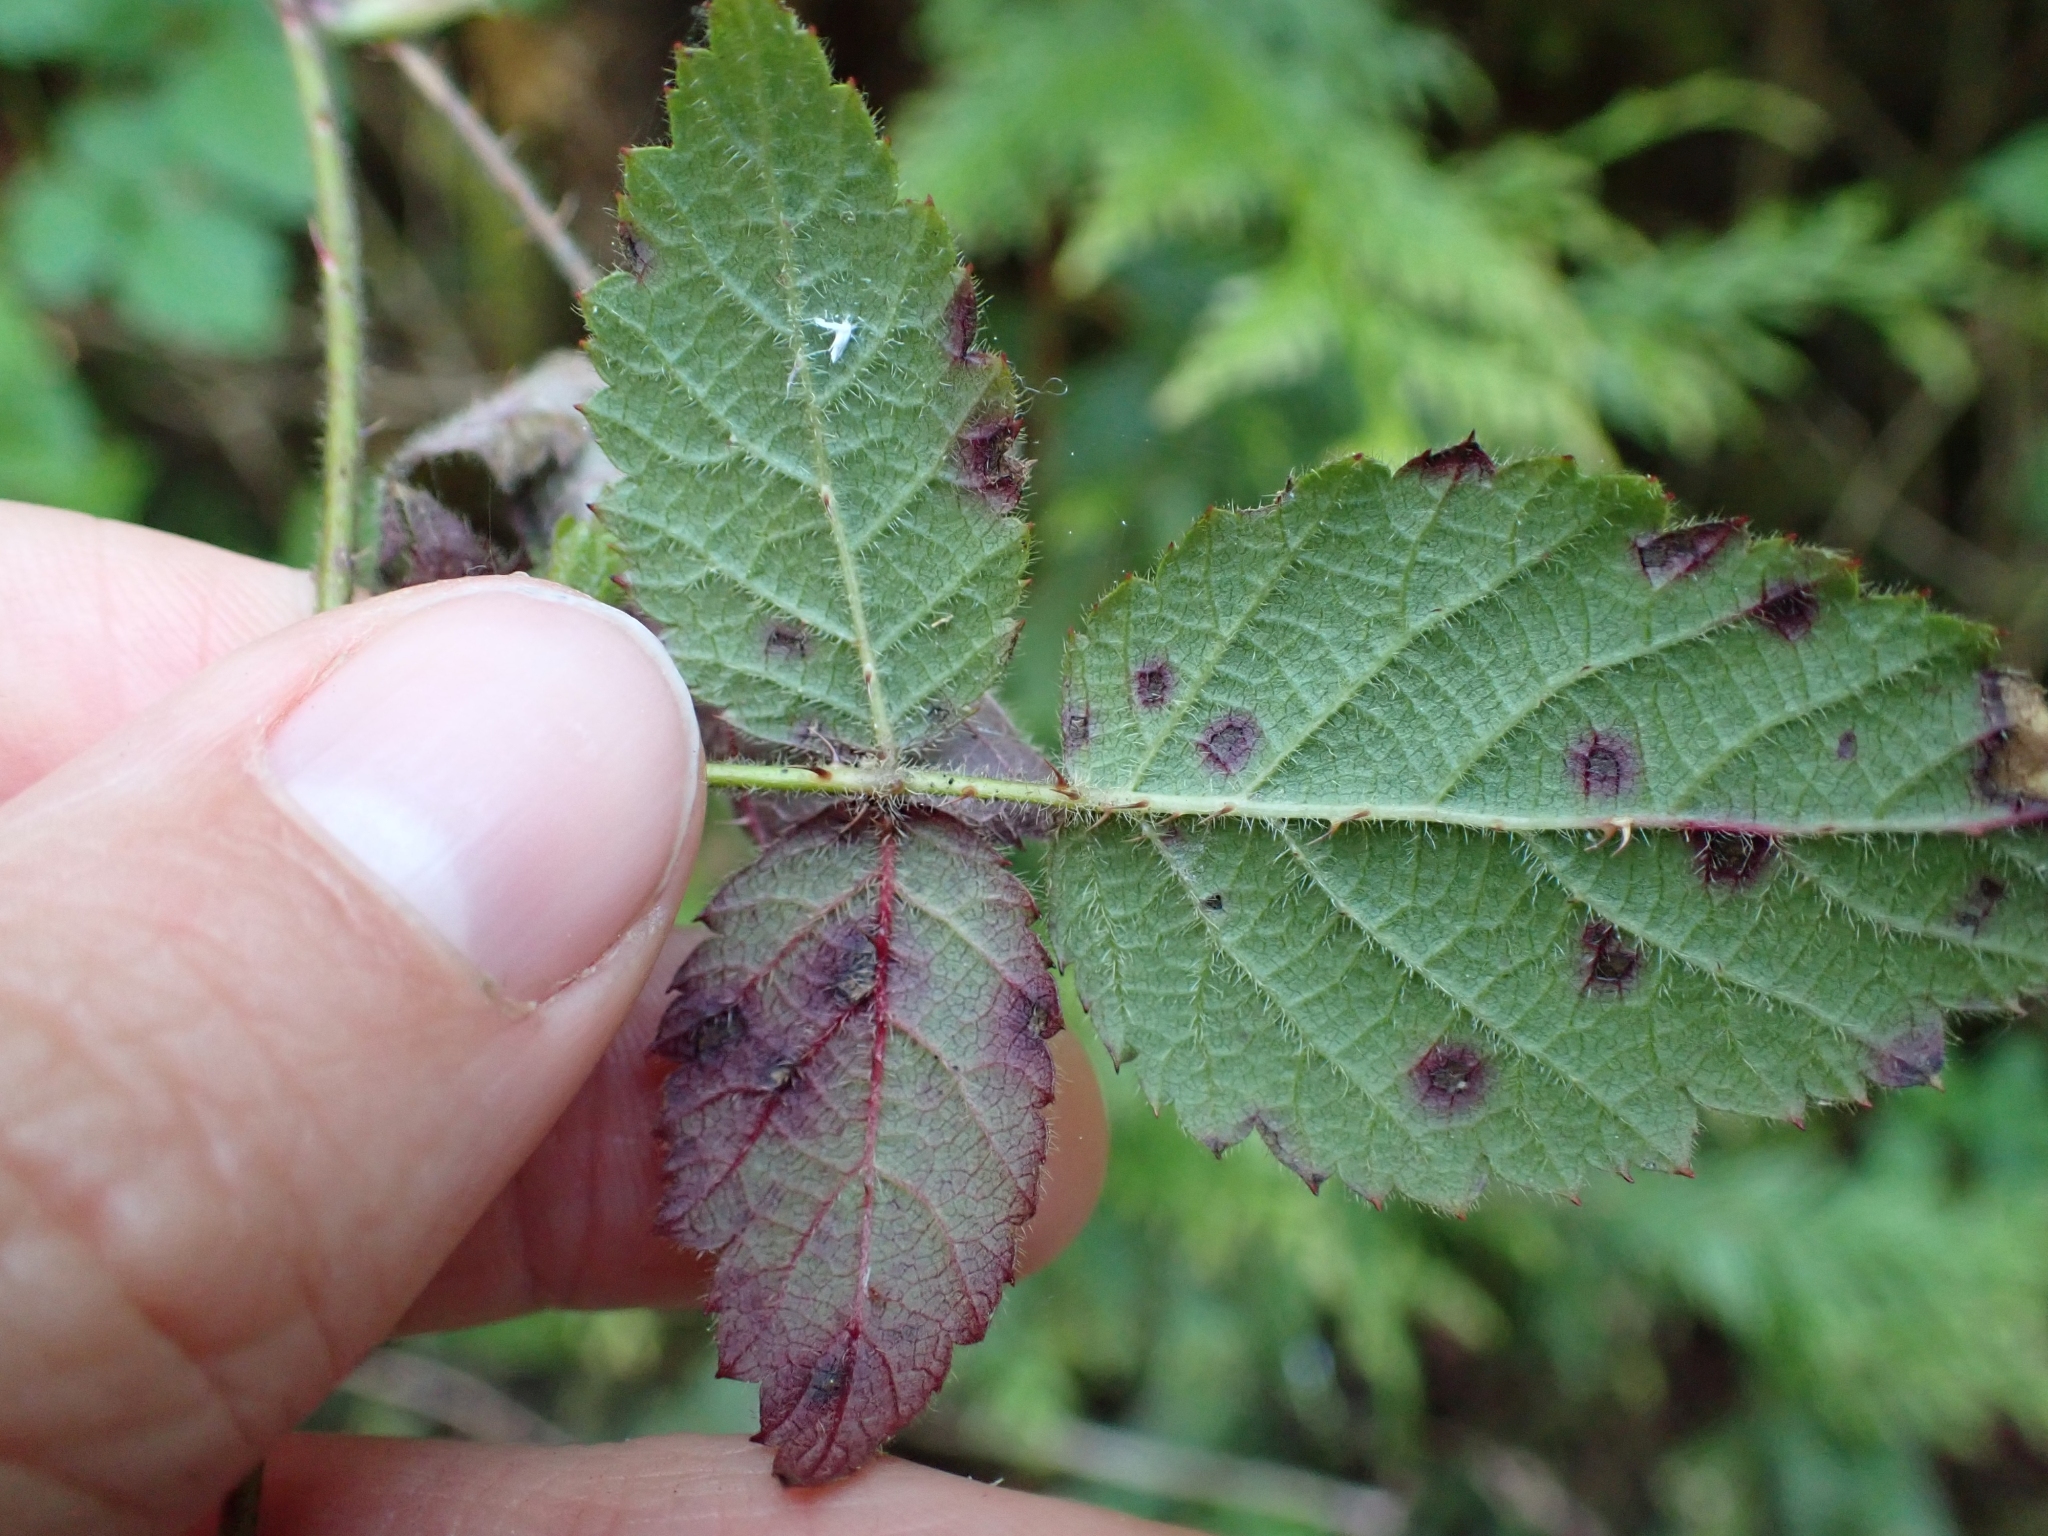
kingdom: Plantae
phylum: Tracheophyta
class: Magnoliopsida
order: Rosales
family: Rosaceae
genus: Rubus
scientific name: Rubus ursinus
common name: Pacific blackberry
